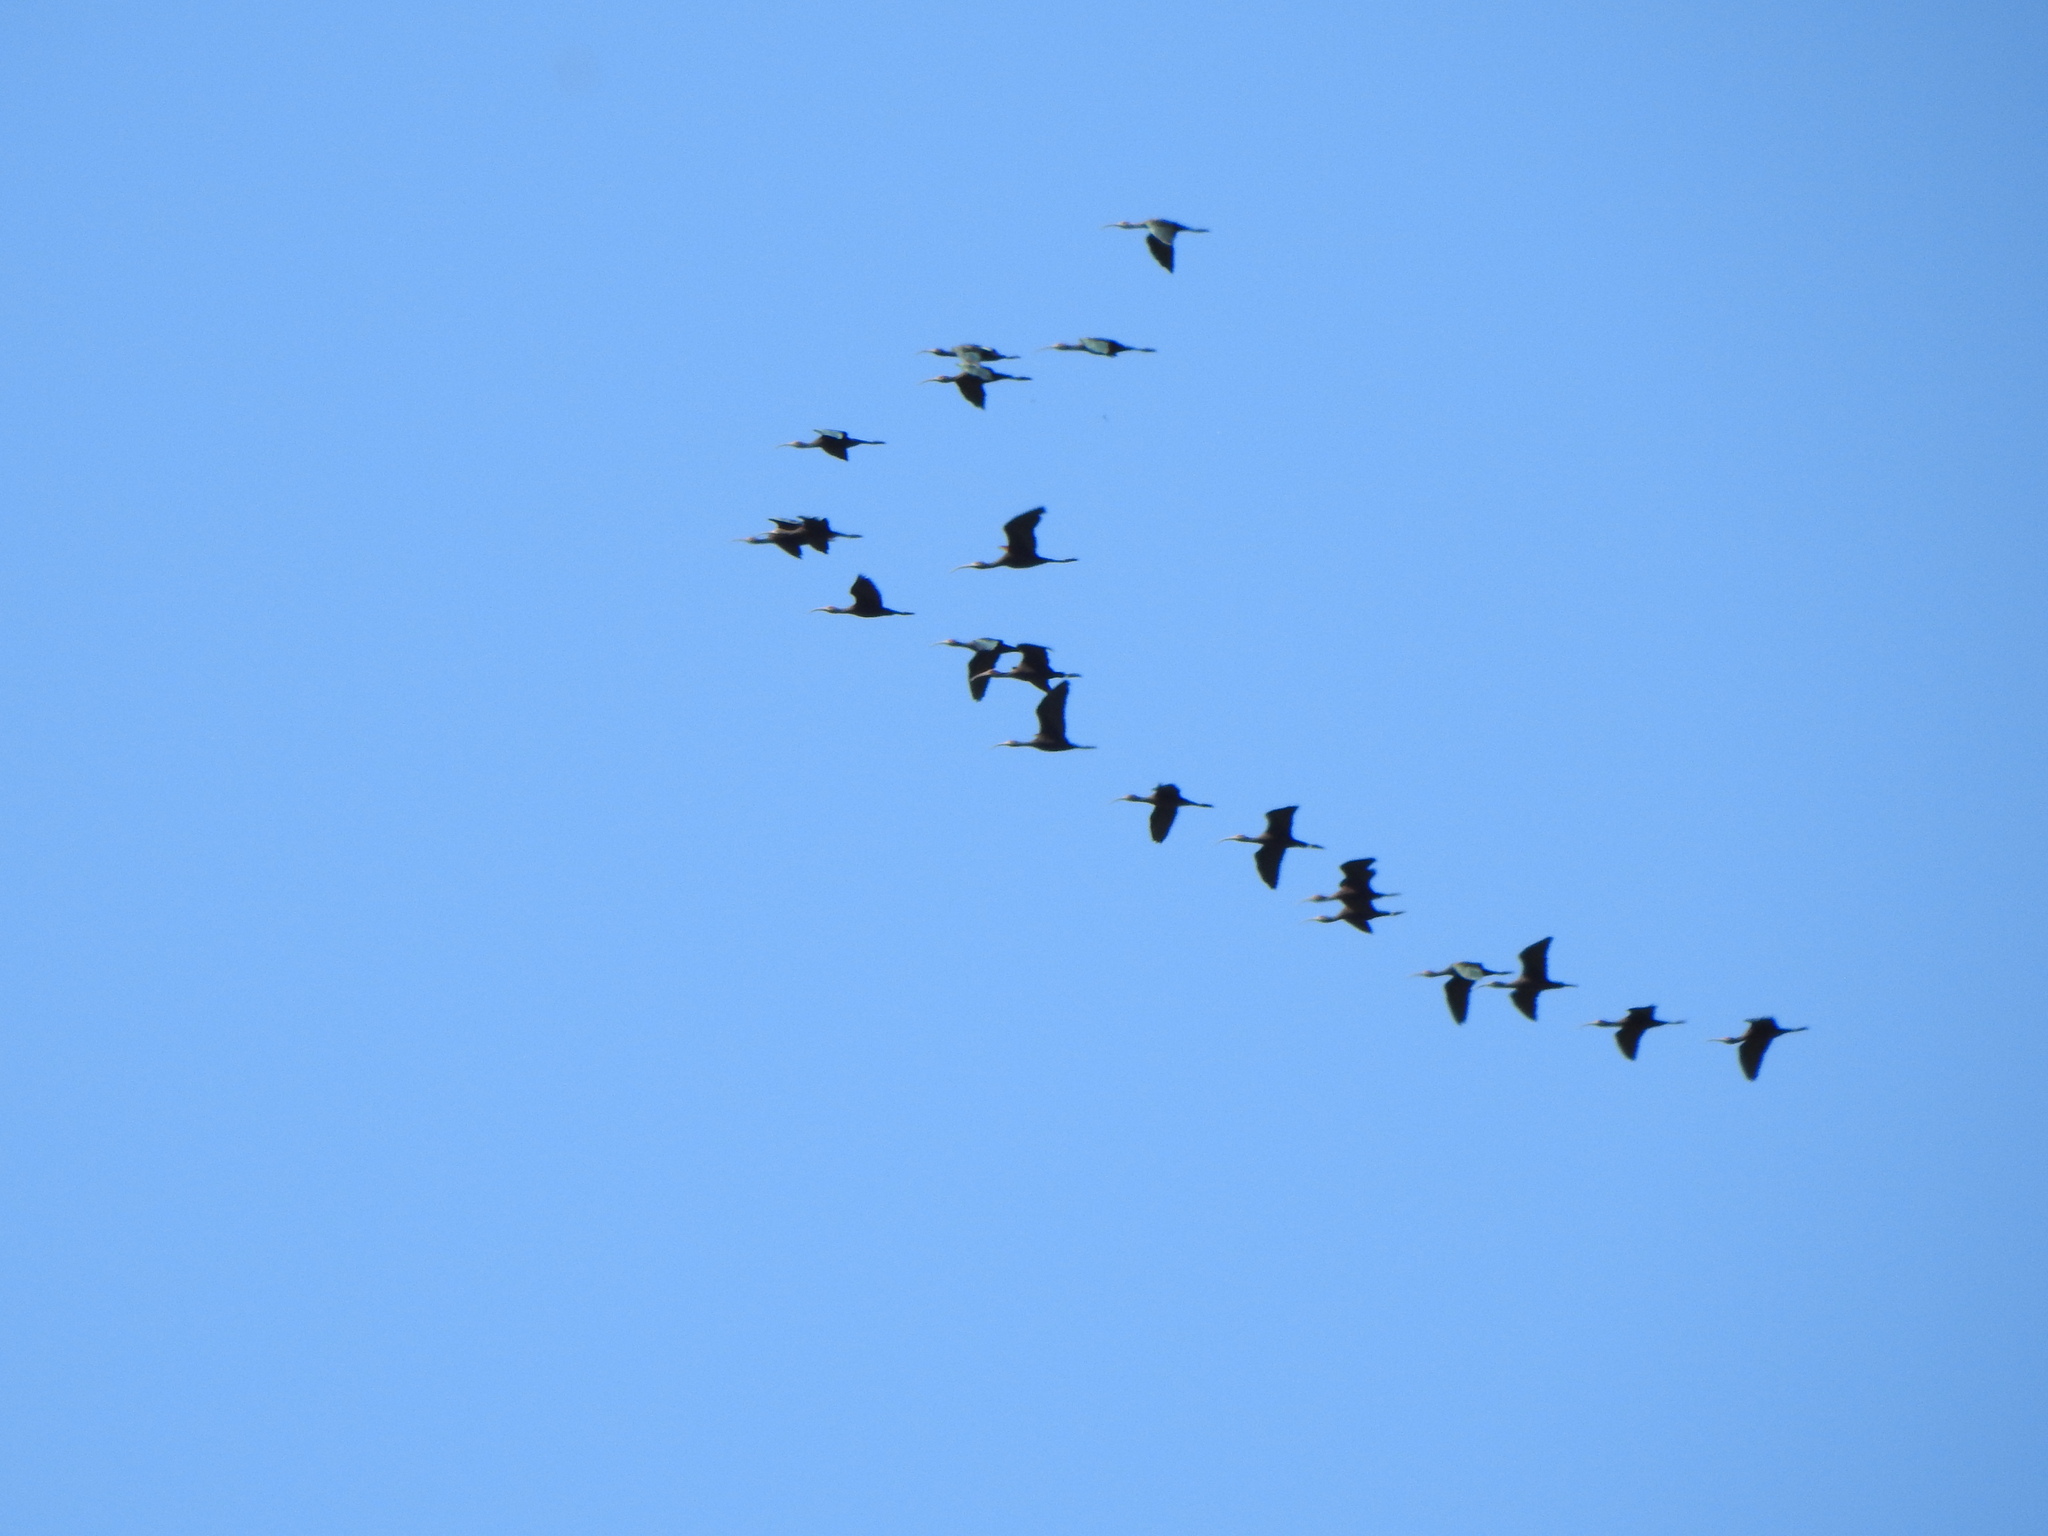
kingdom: Animalia
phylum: Chordata
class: Aves
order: Pelecaniformes
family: Threskiornithidae
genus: Plegadis
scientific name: Plegadis chihi
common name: White-faced ibis
